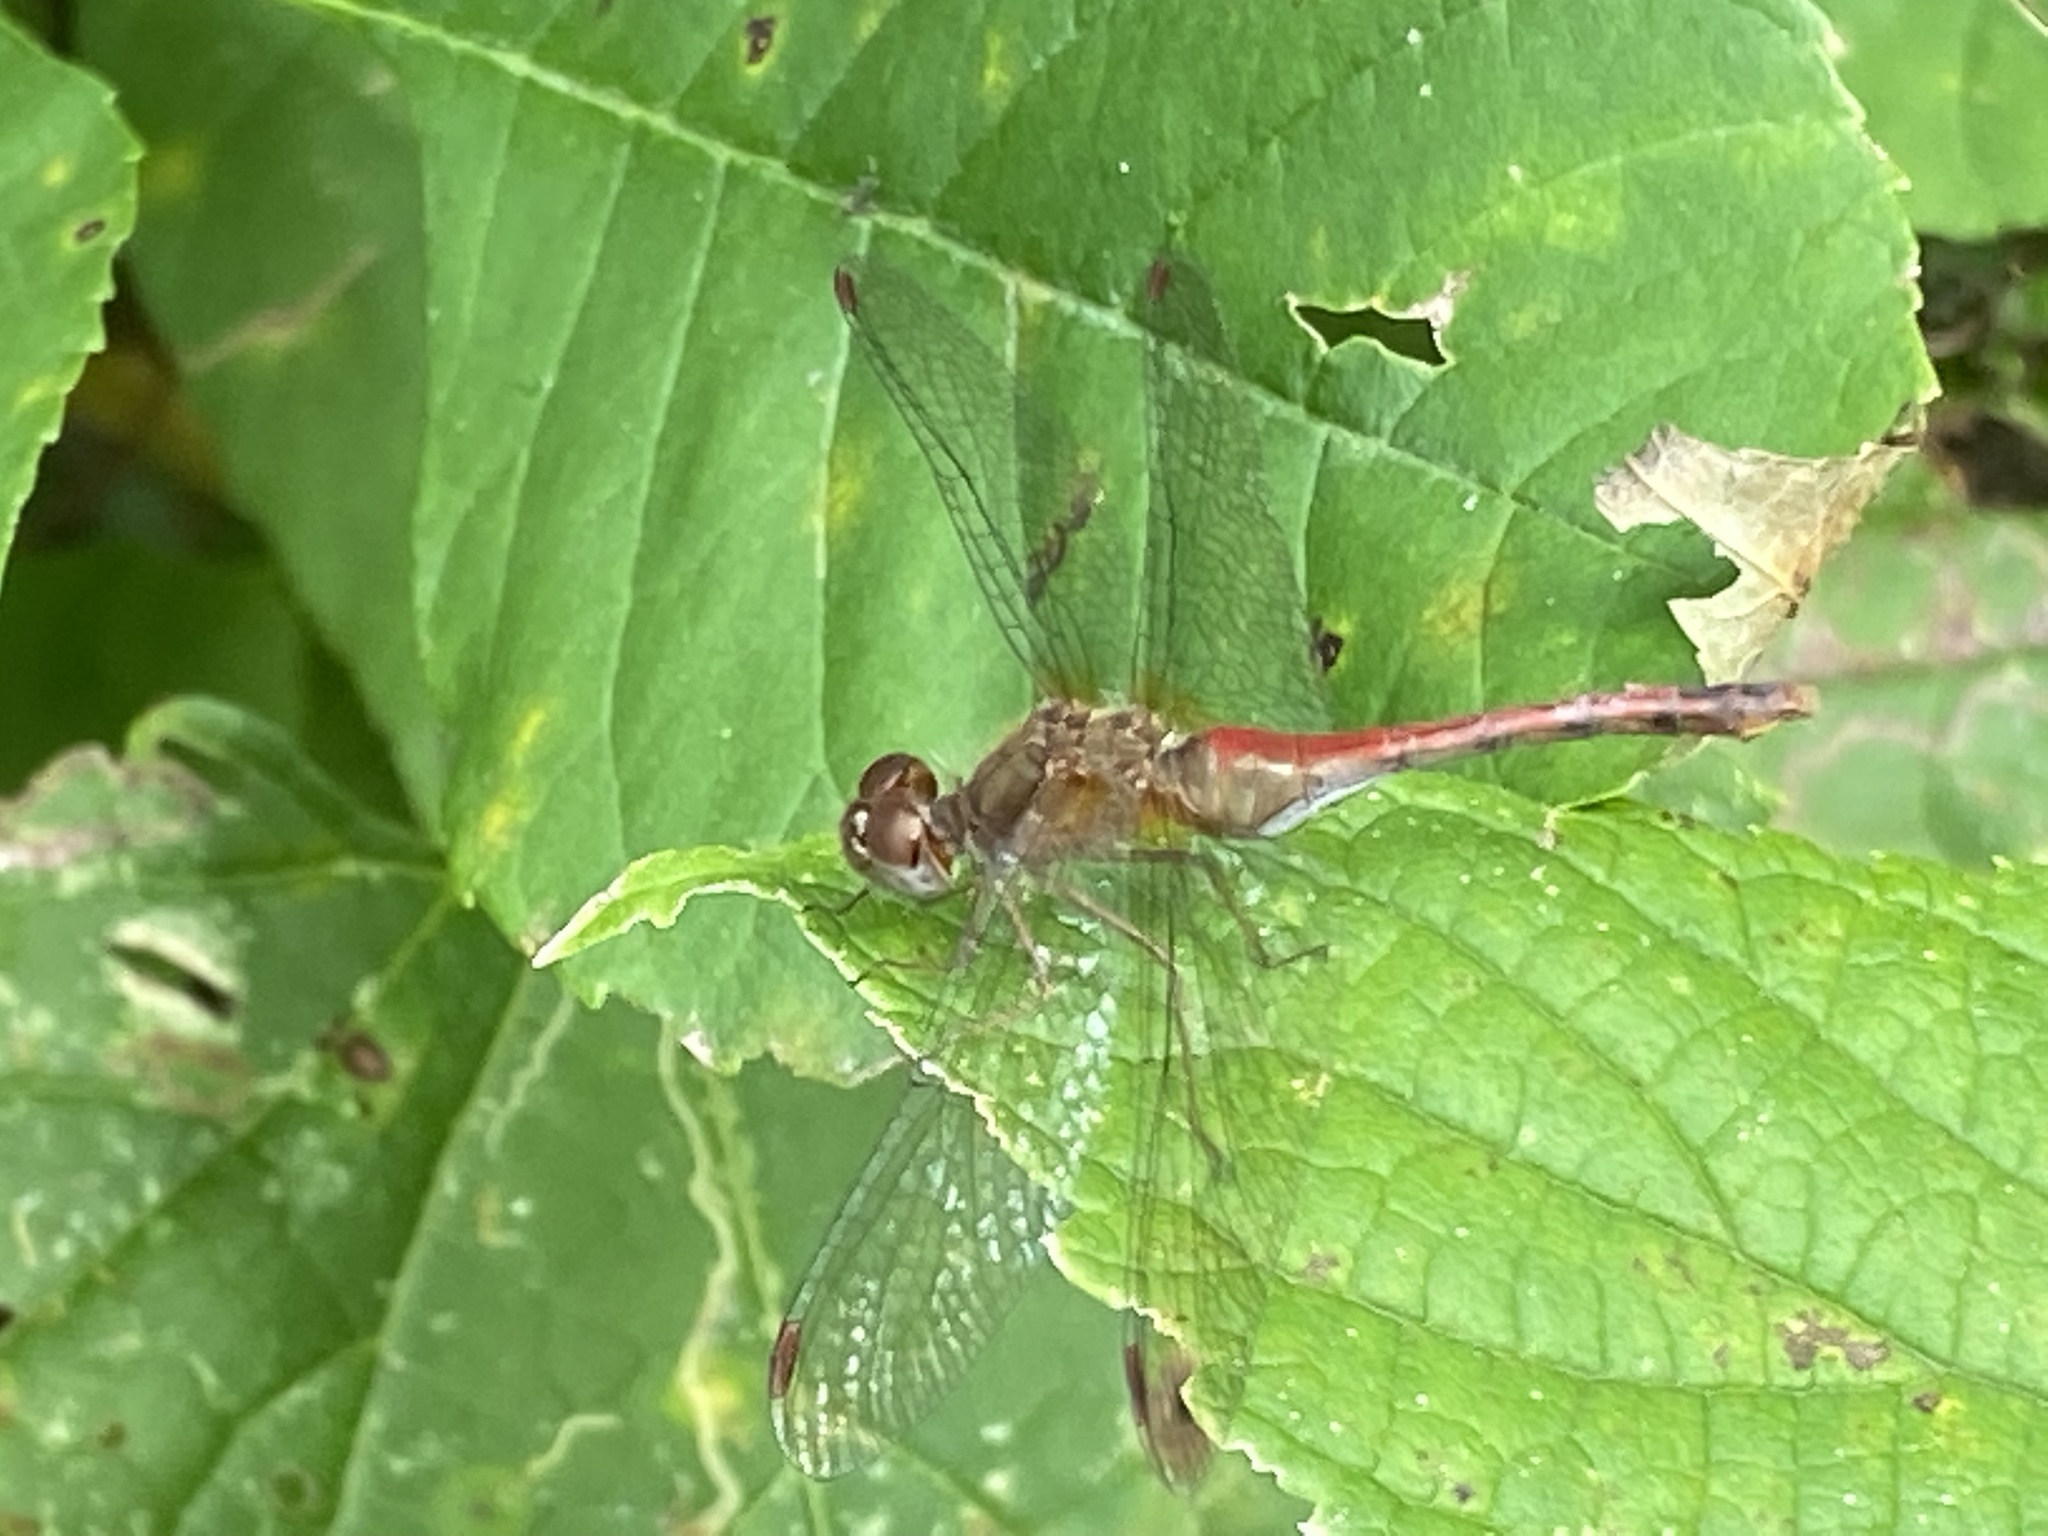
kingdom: Animalia
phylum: Arthropoda
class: Insecta
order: Odonata
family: Libellulidae
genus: Sympetrum
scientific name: Sympetrum vicinum
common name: Autumn meadowhawk
